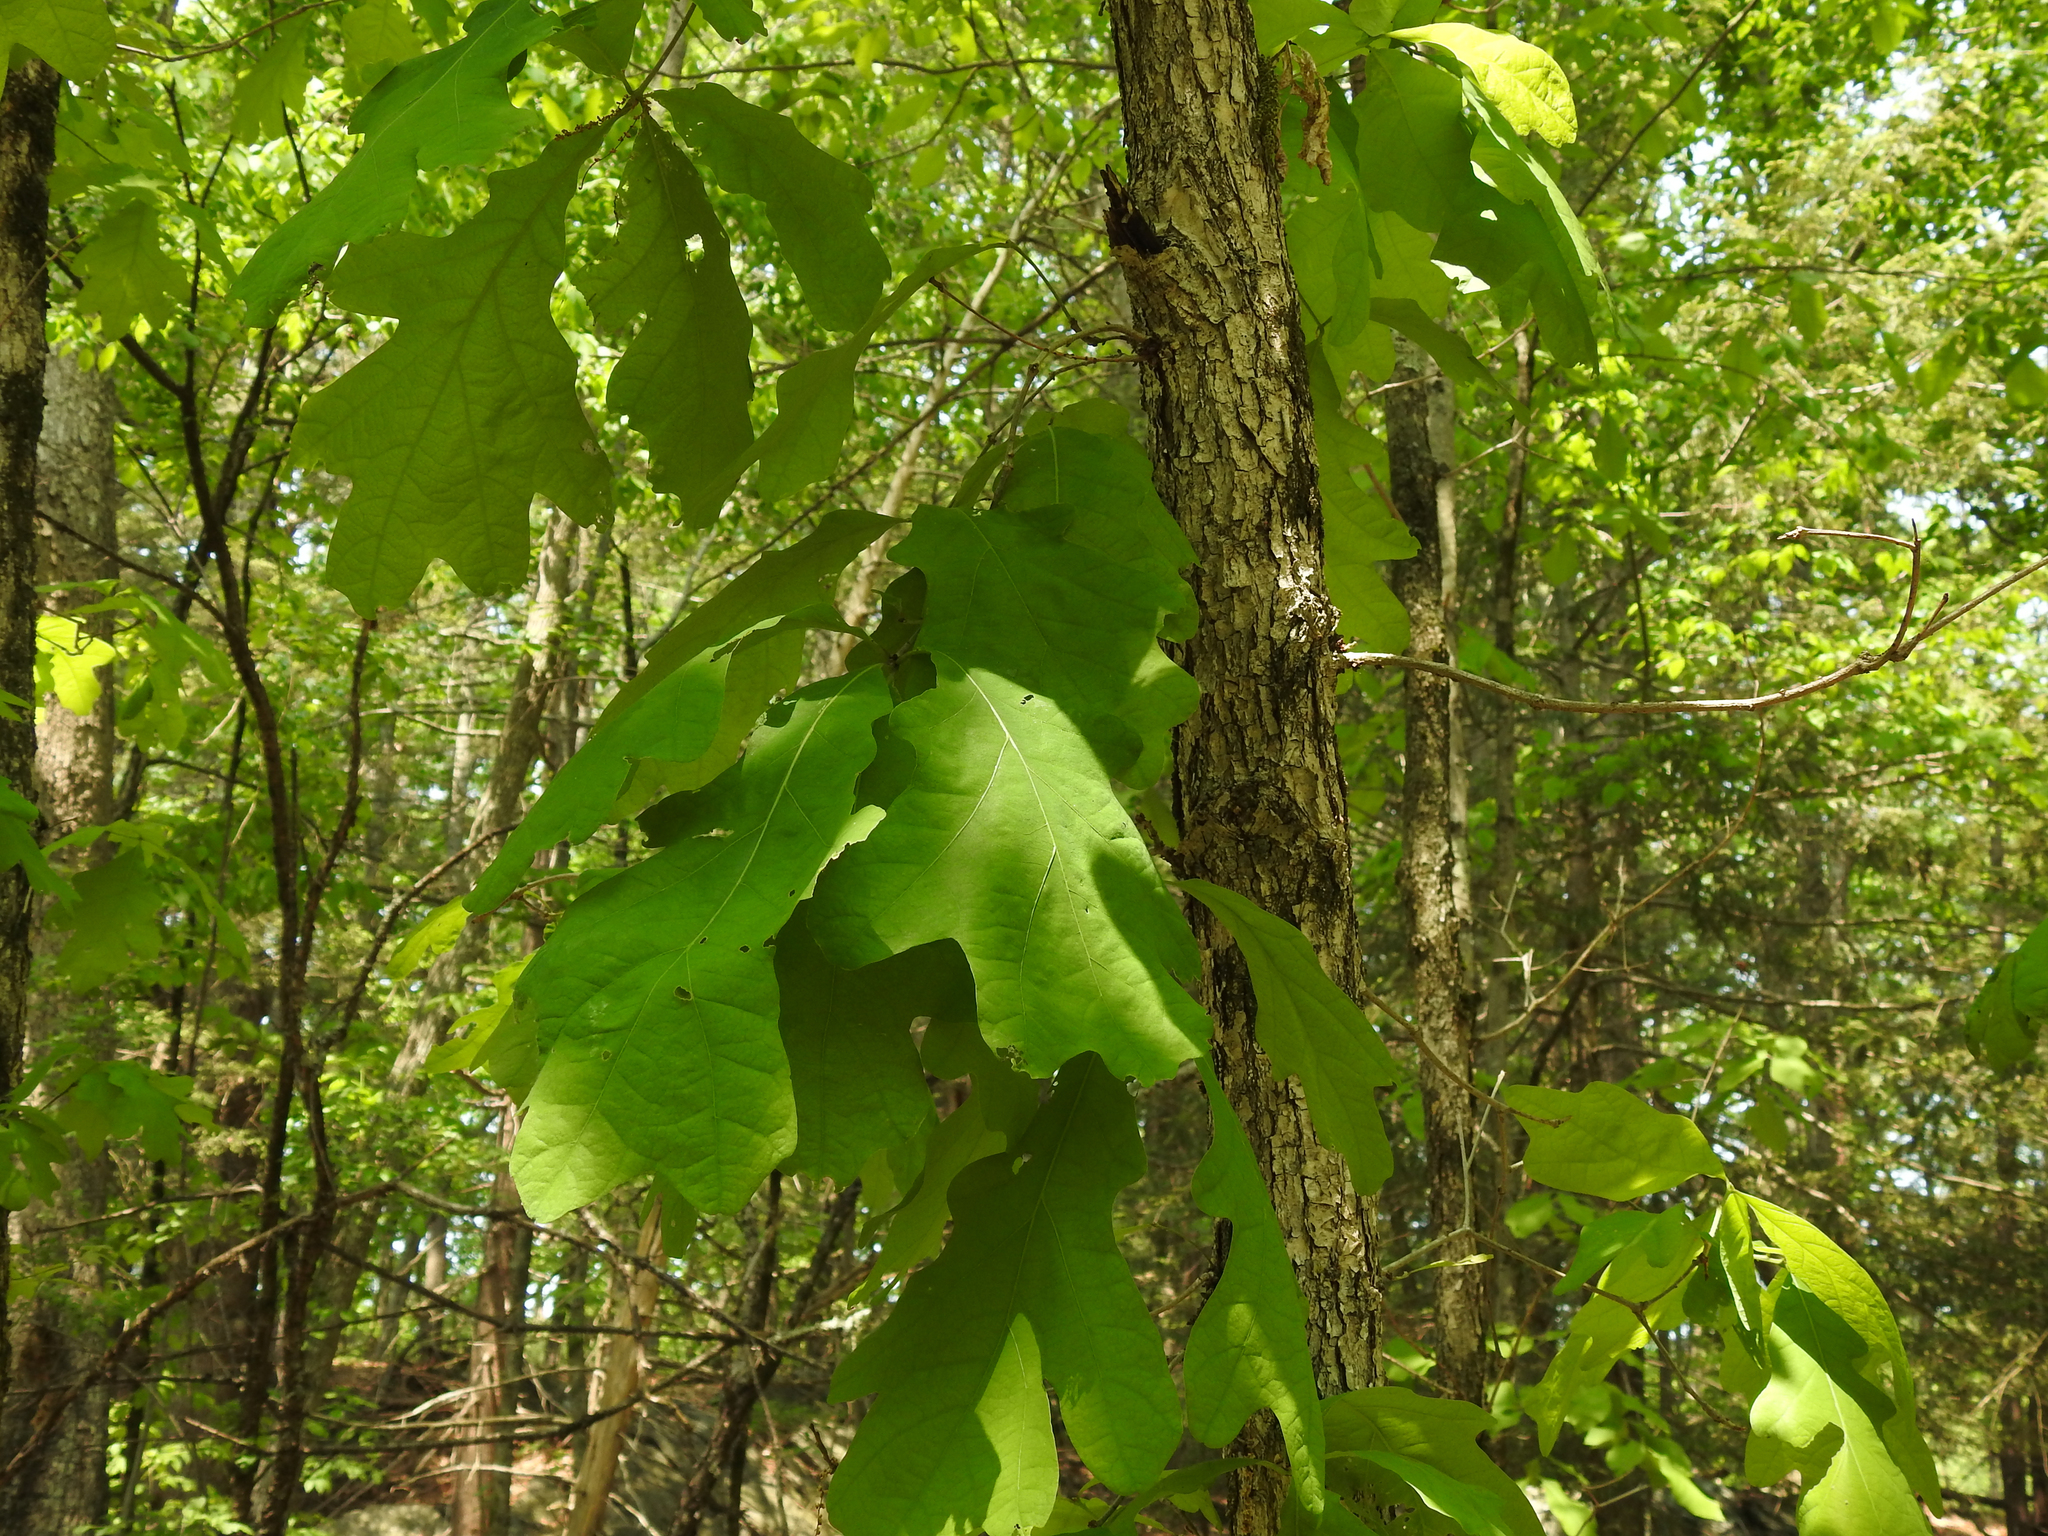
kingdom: Plantae
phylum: Tracheophyta
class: Magnoliopsida
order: Fagales
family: Fagaceae
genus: Quercus
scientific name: Quercus alba
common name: White oak
